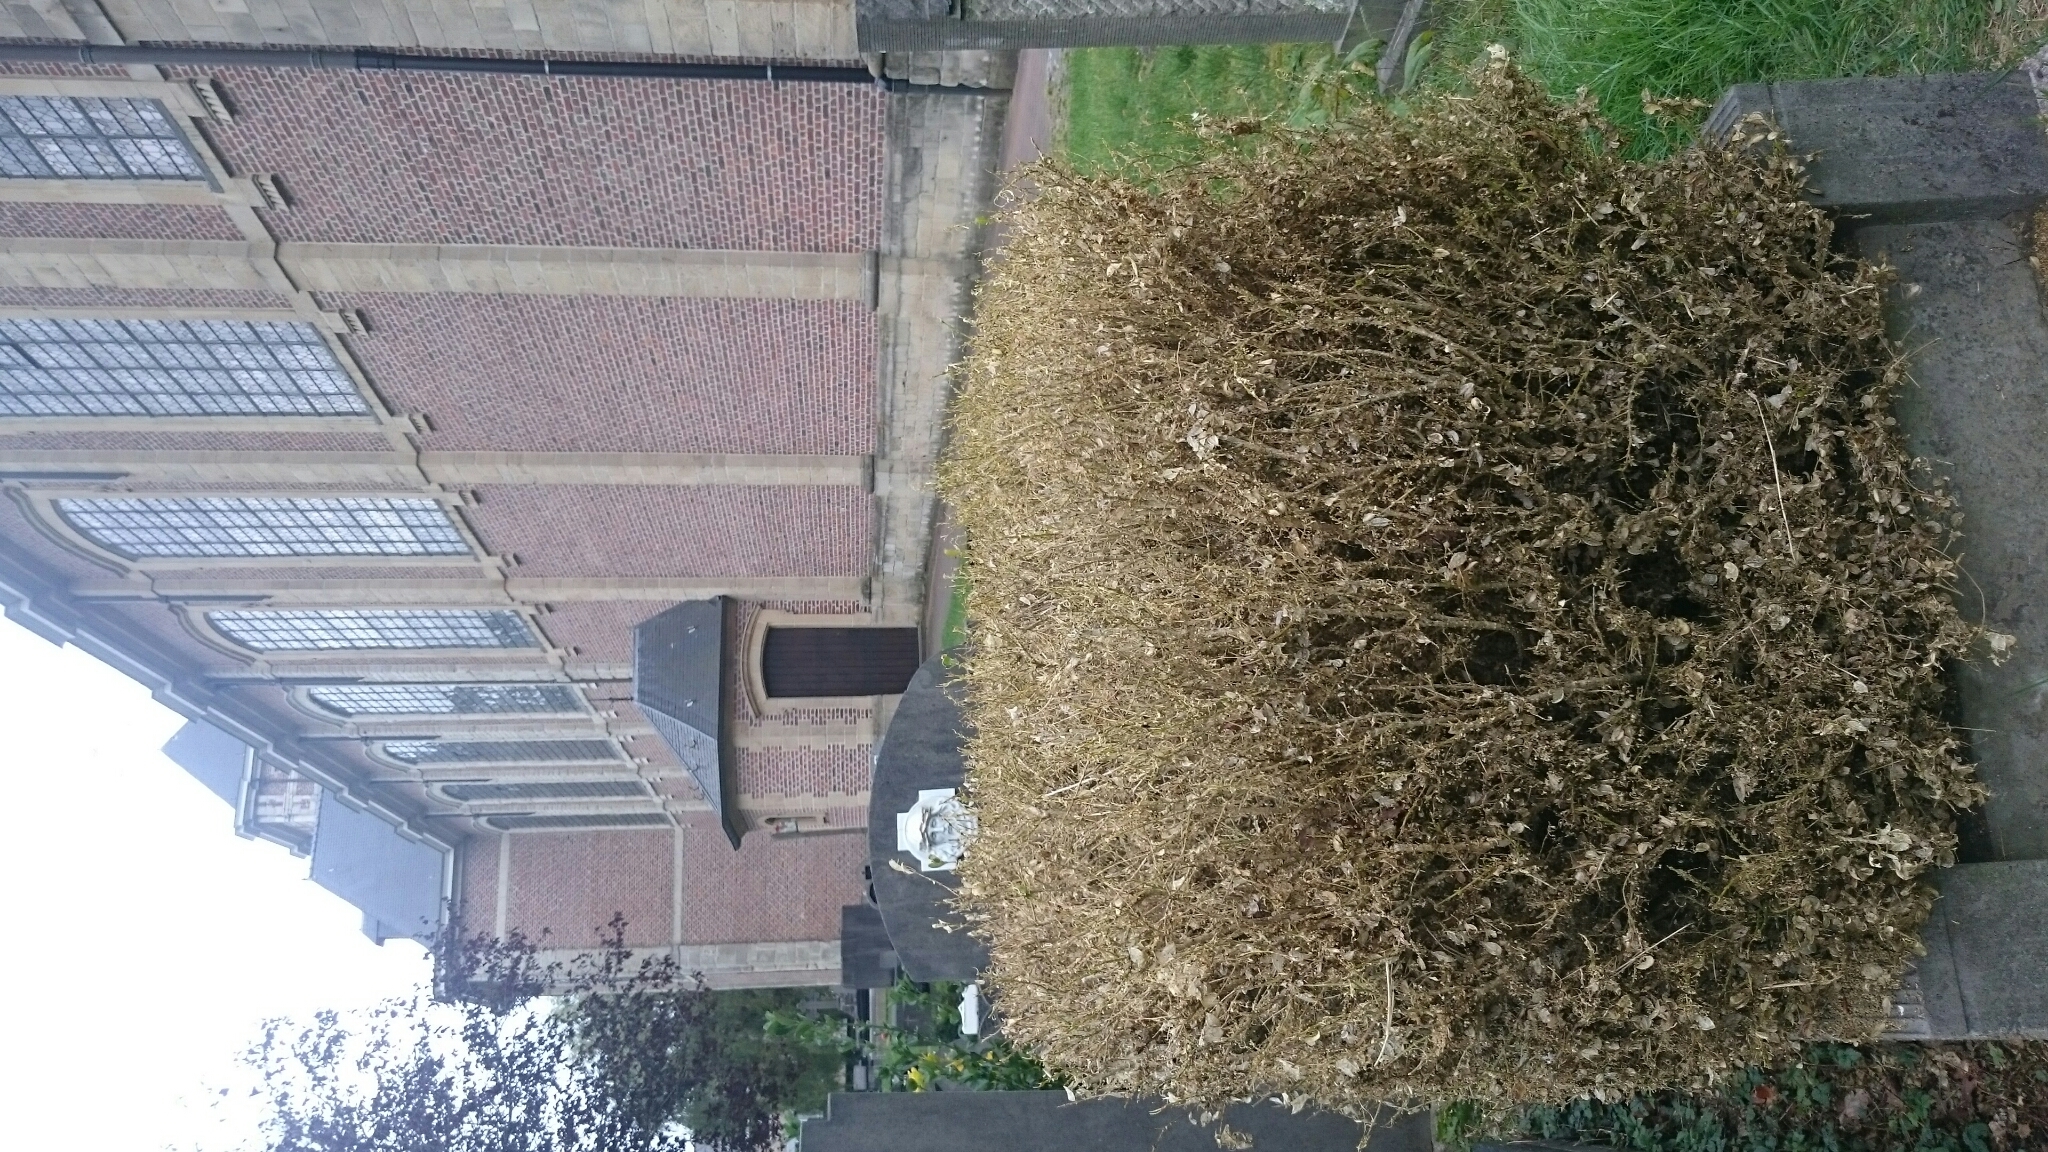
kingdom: Animalia
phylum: Arthropoda
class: Insecta
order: Lepidoptera
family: Crambidae
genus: Cydalima
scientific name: Cydalima perspectalis
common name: Box tree moth
